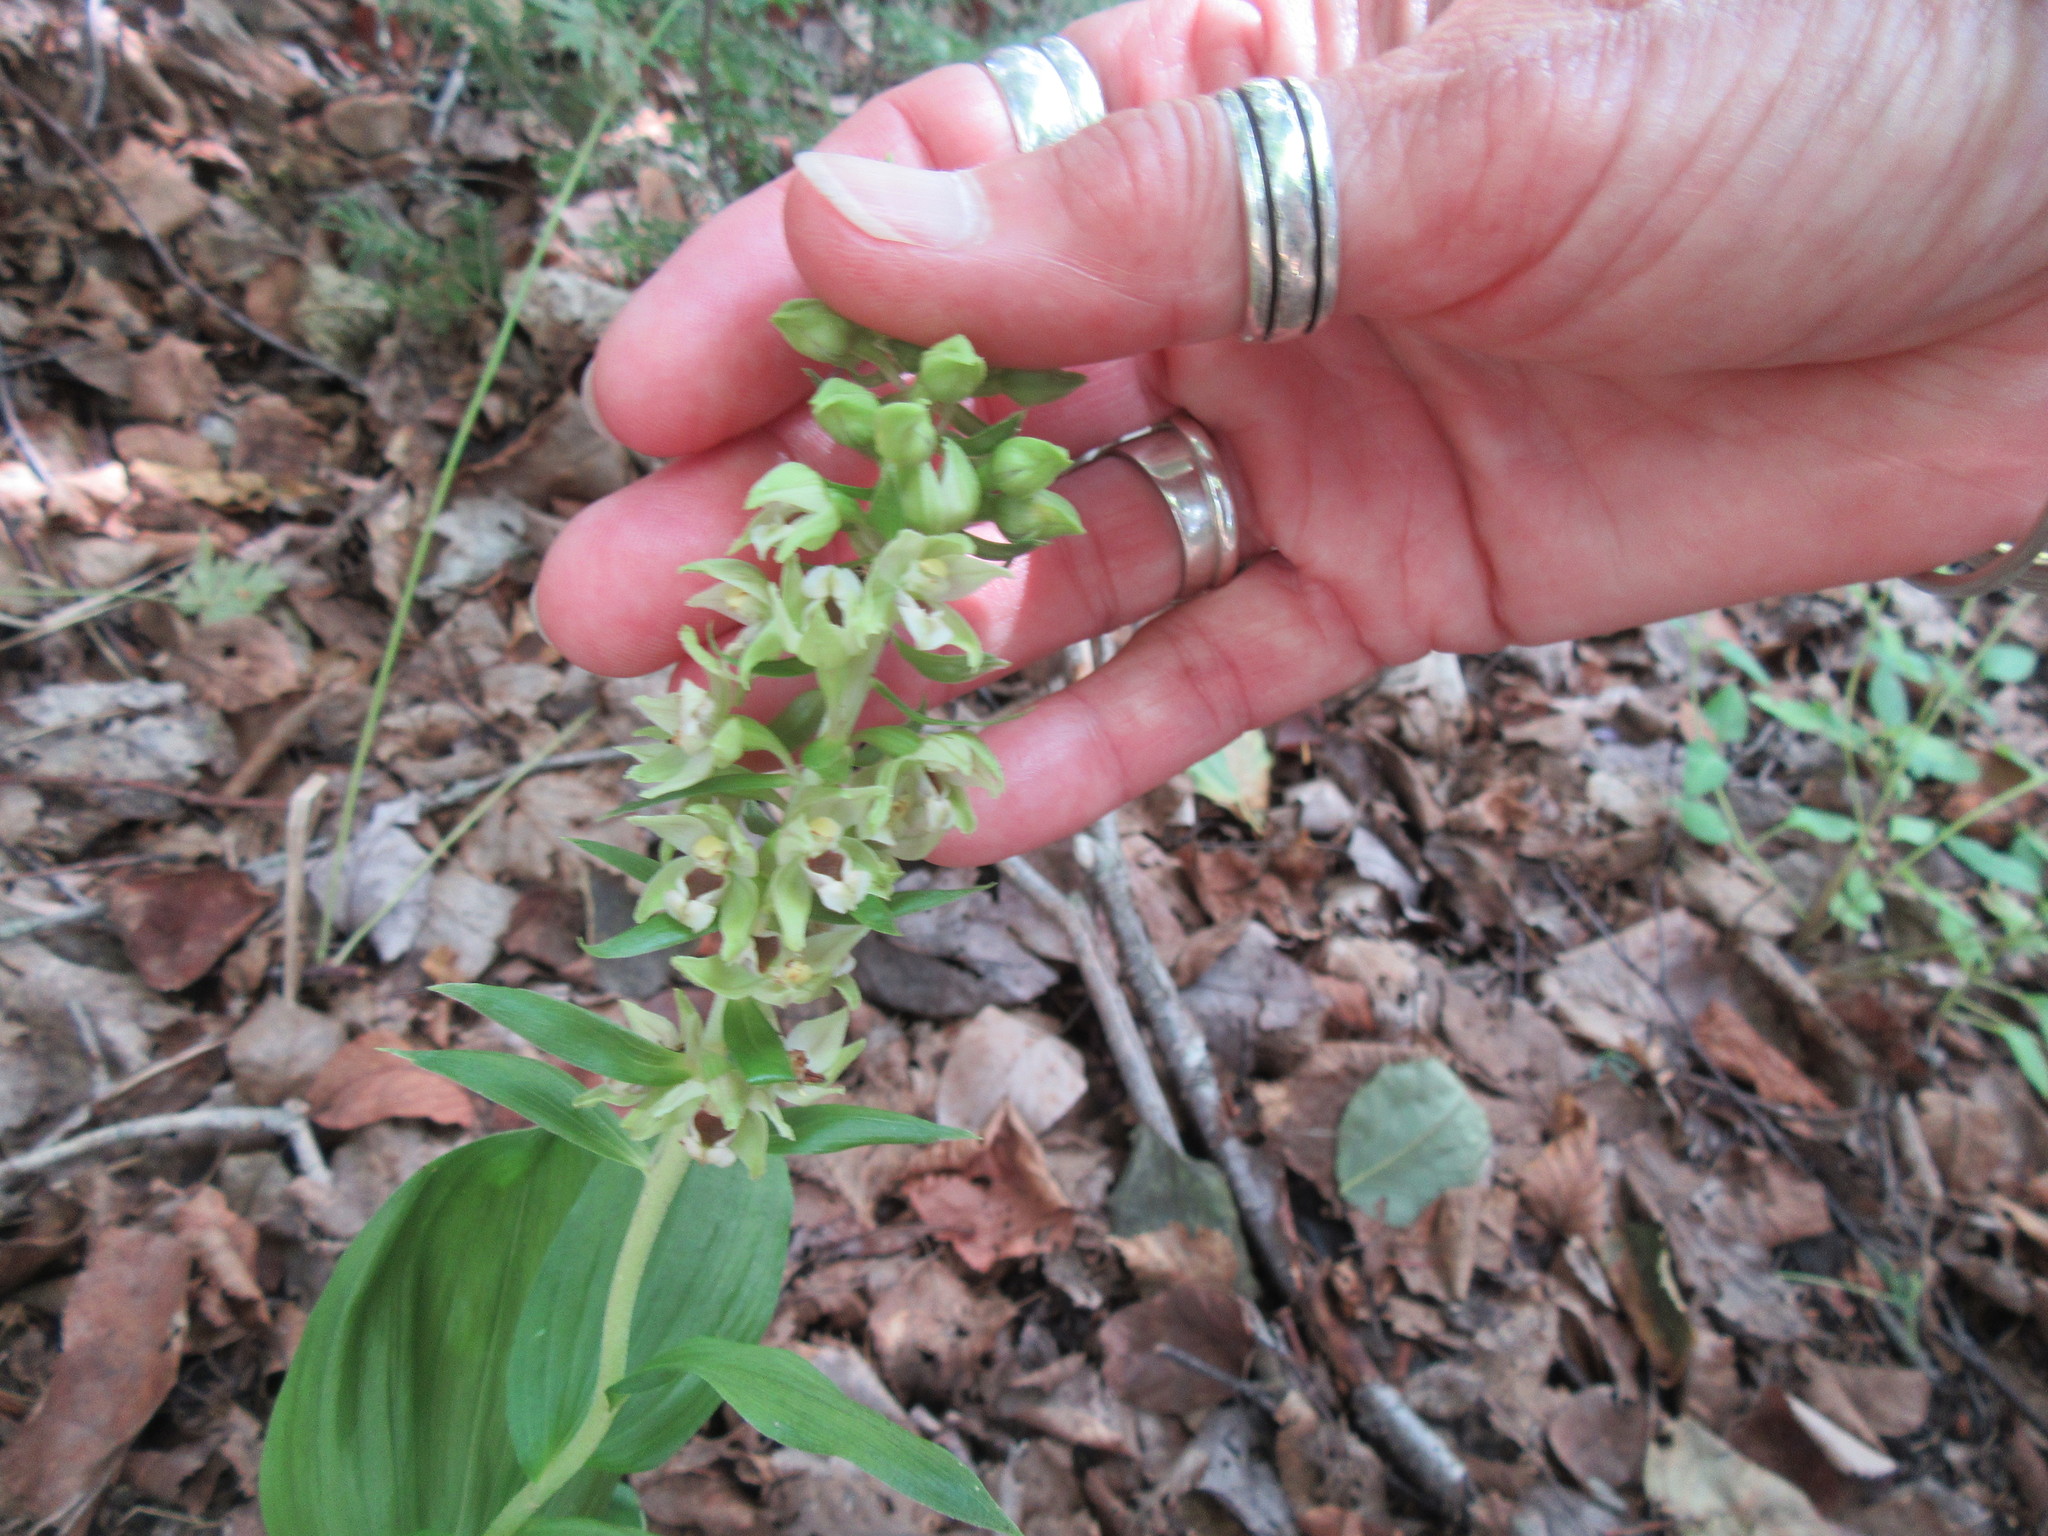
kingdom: Plantae
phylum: Tracheophyta
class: Liliopsida
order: Asparagales
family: Orchidaceae
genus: Epipactis
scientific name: Epipactis helleborine
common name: Broad-leaved helleborine
